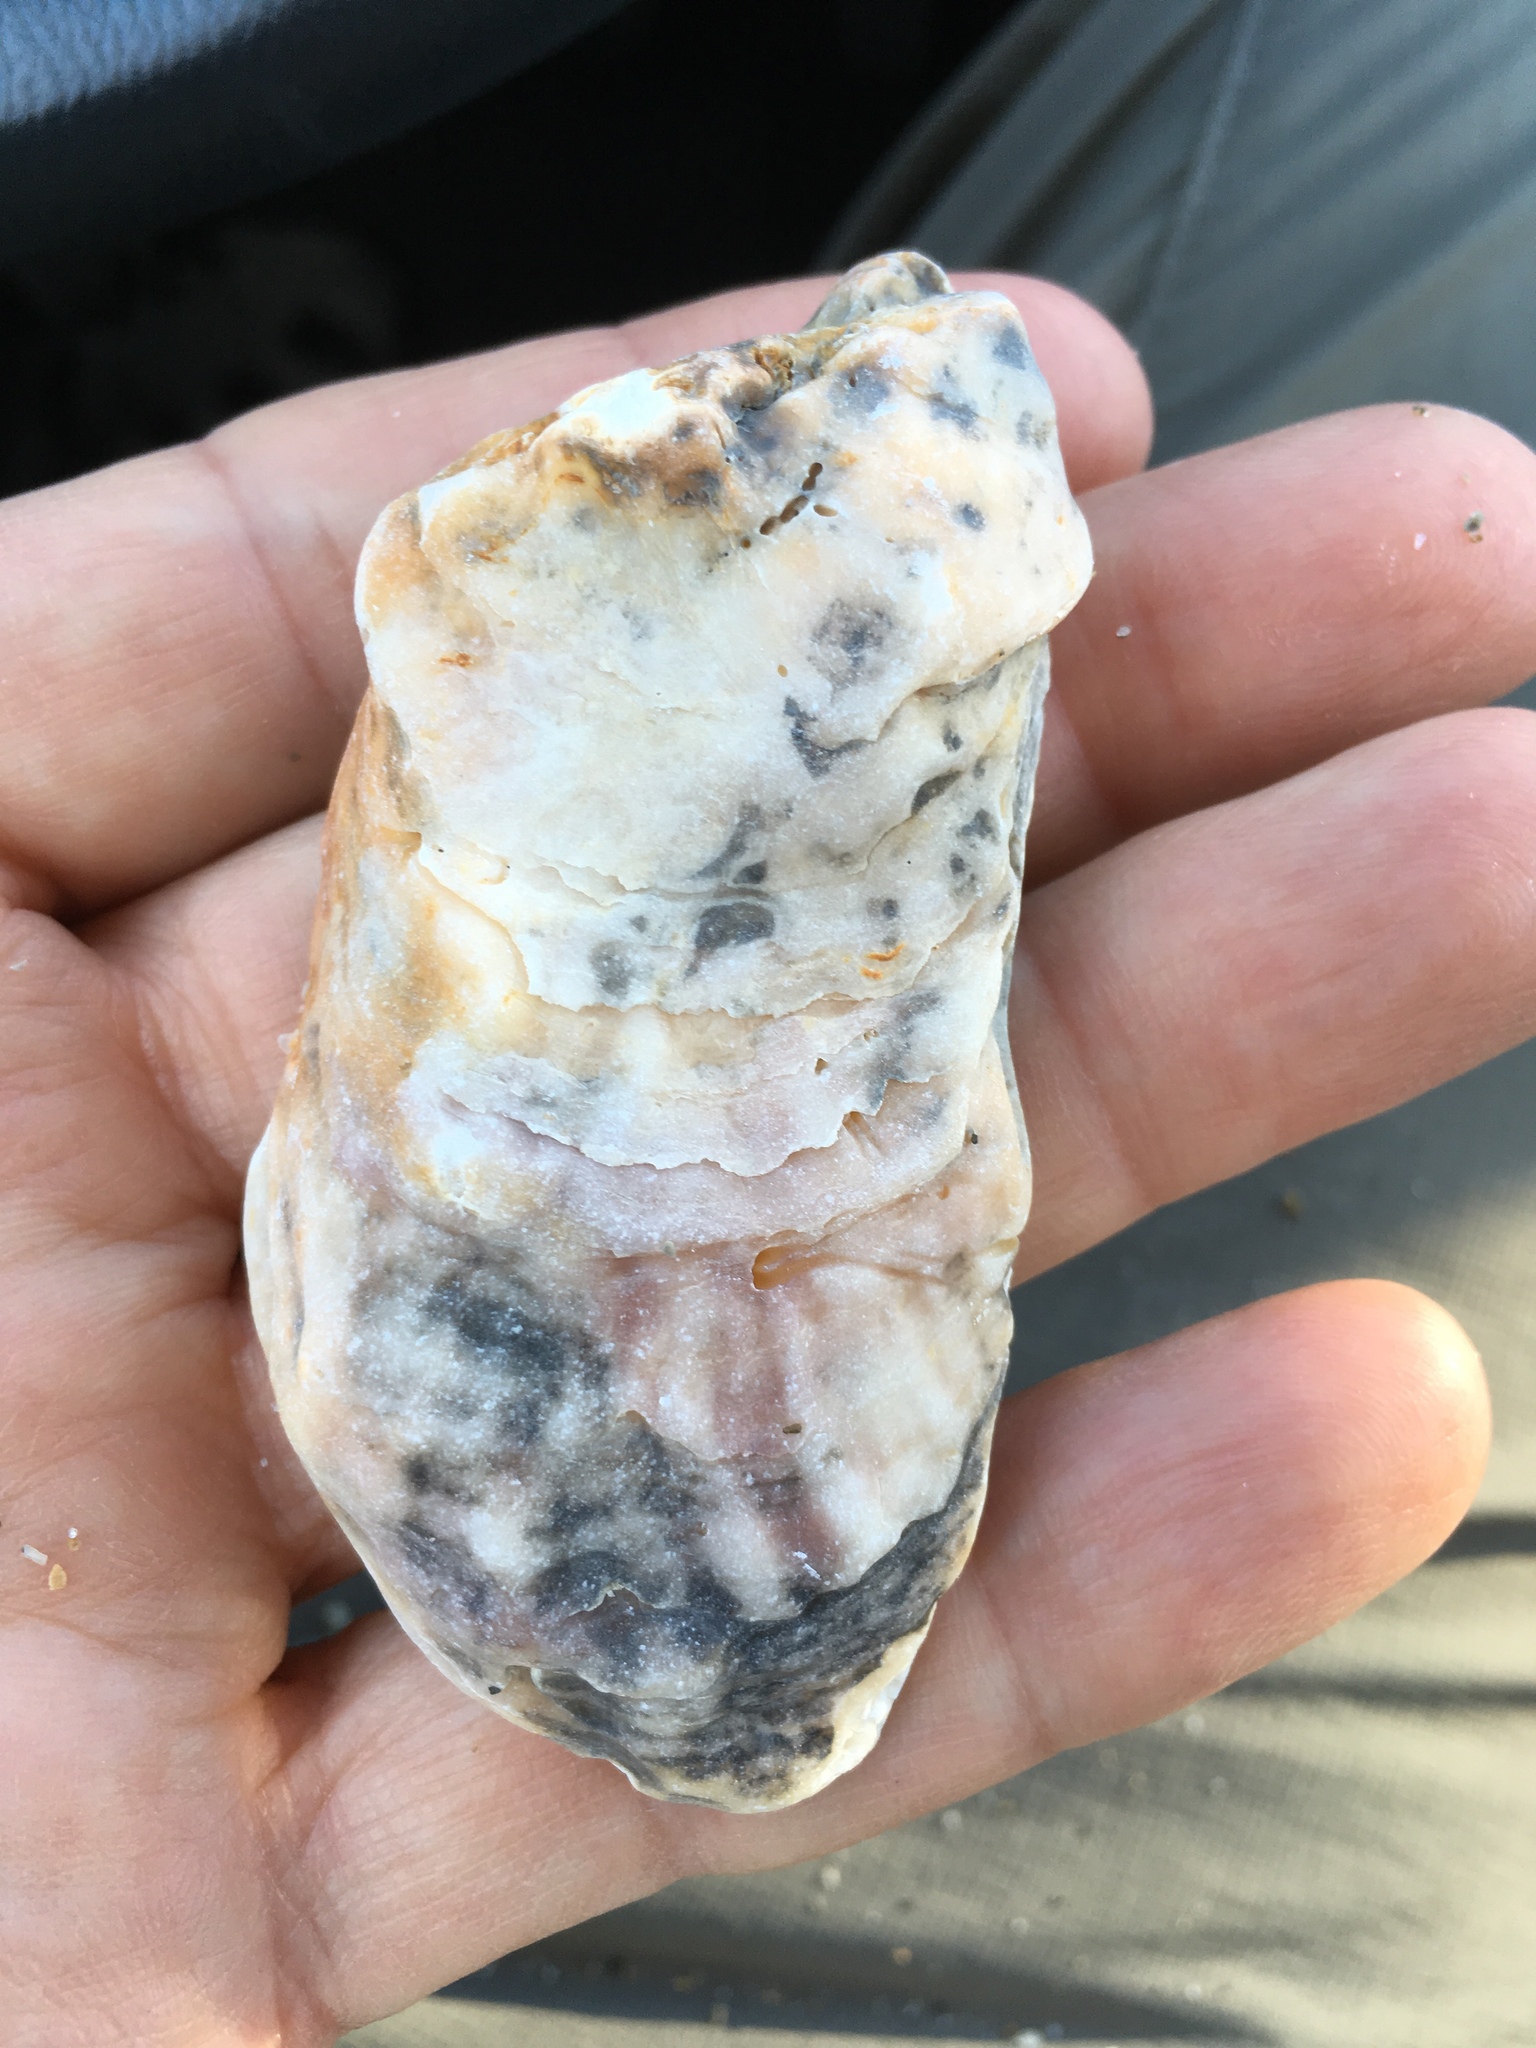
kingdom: Animalia
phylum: Mollusca
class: Bivalvia
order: Ostreida
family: Ostreidae
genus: Crassostrea
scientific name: Crassostrea virginica
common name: American oyster
